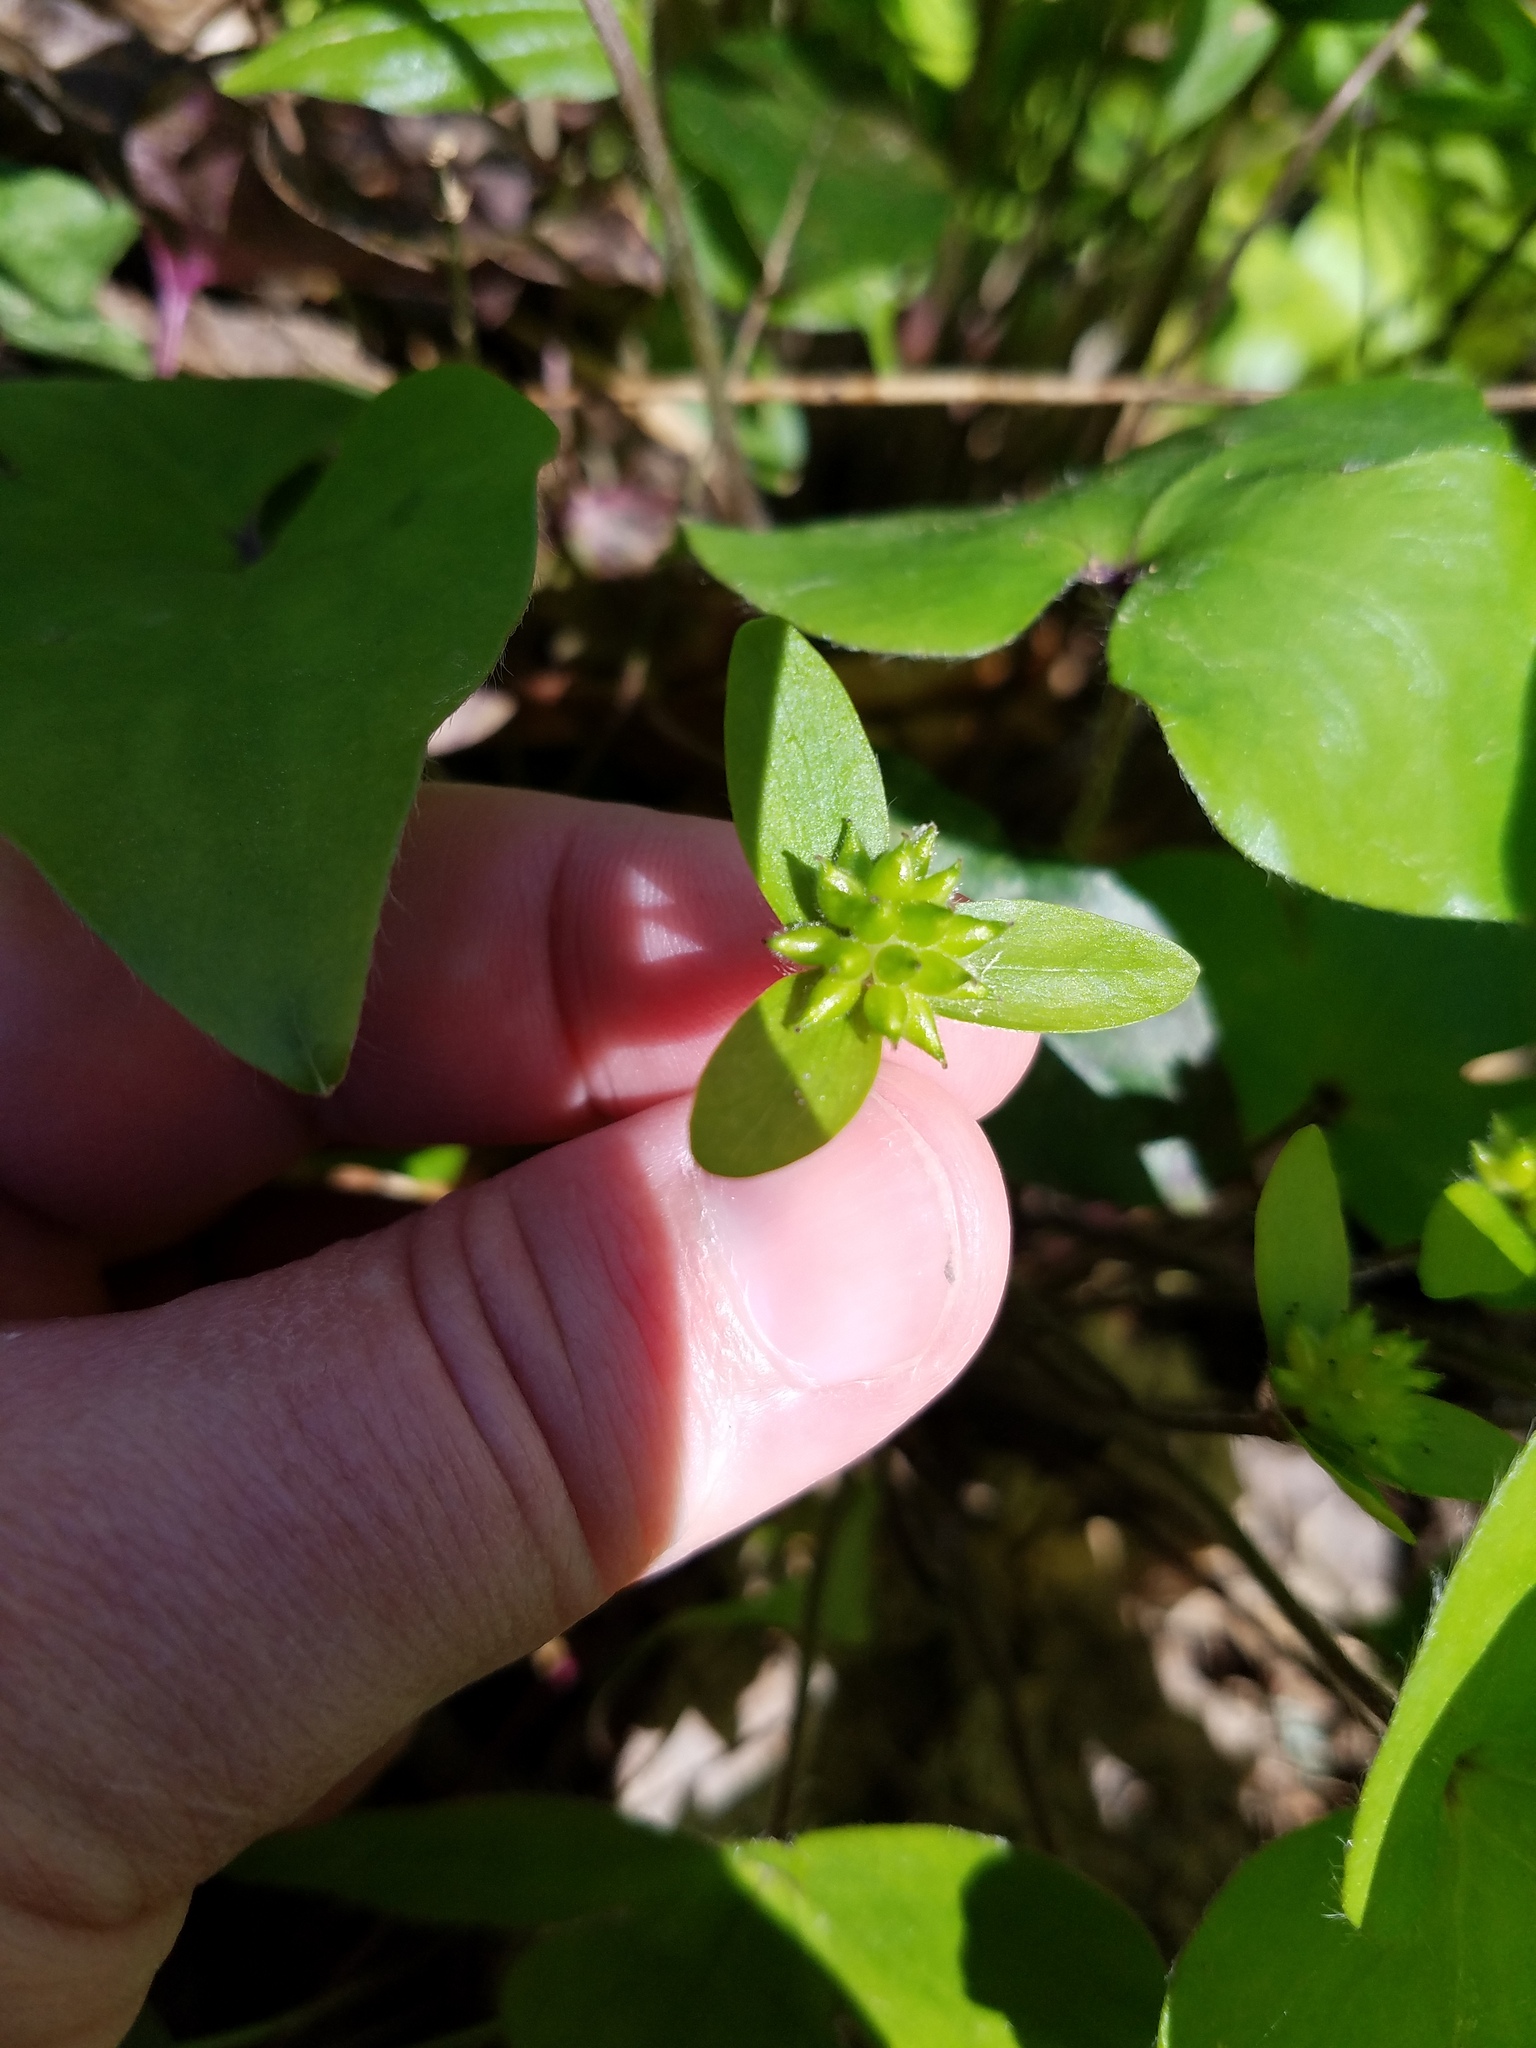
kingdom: Plantae
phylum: Tracheophyta
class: Magnoliopsida
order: Ranunculales
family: Ranunculaceae
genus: Hepatica
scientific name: Hepatica acutiloba
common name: Sharp-lobed hepatica
